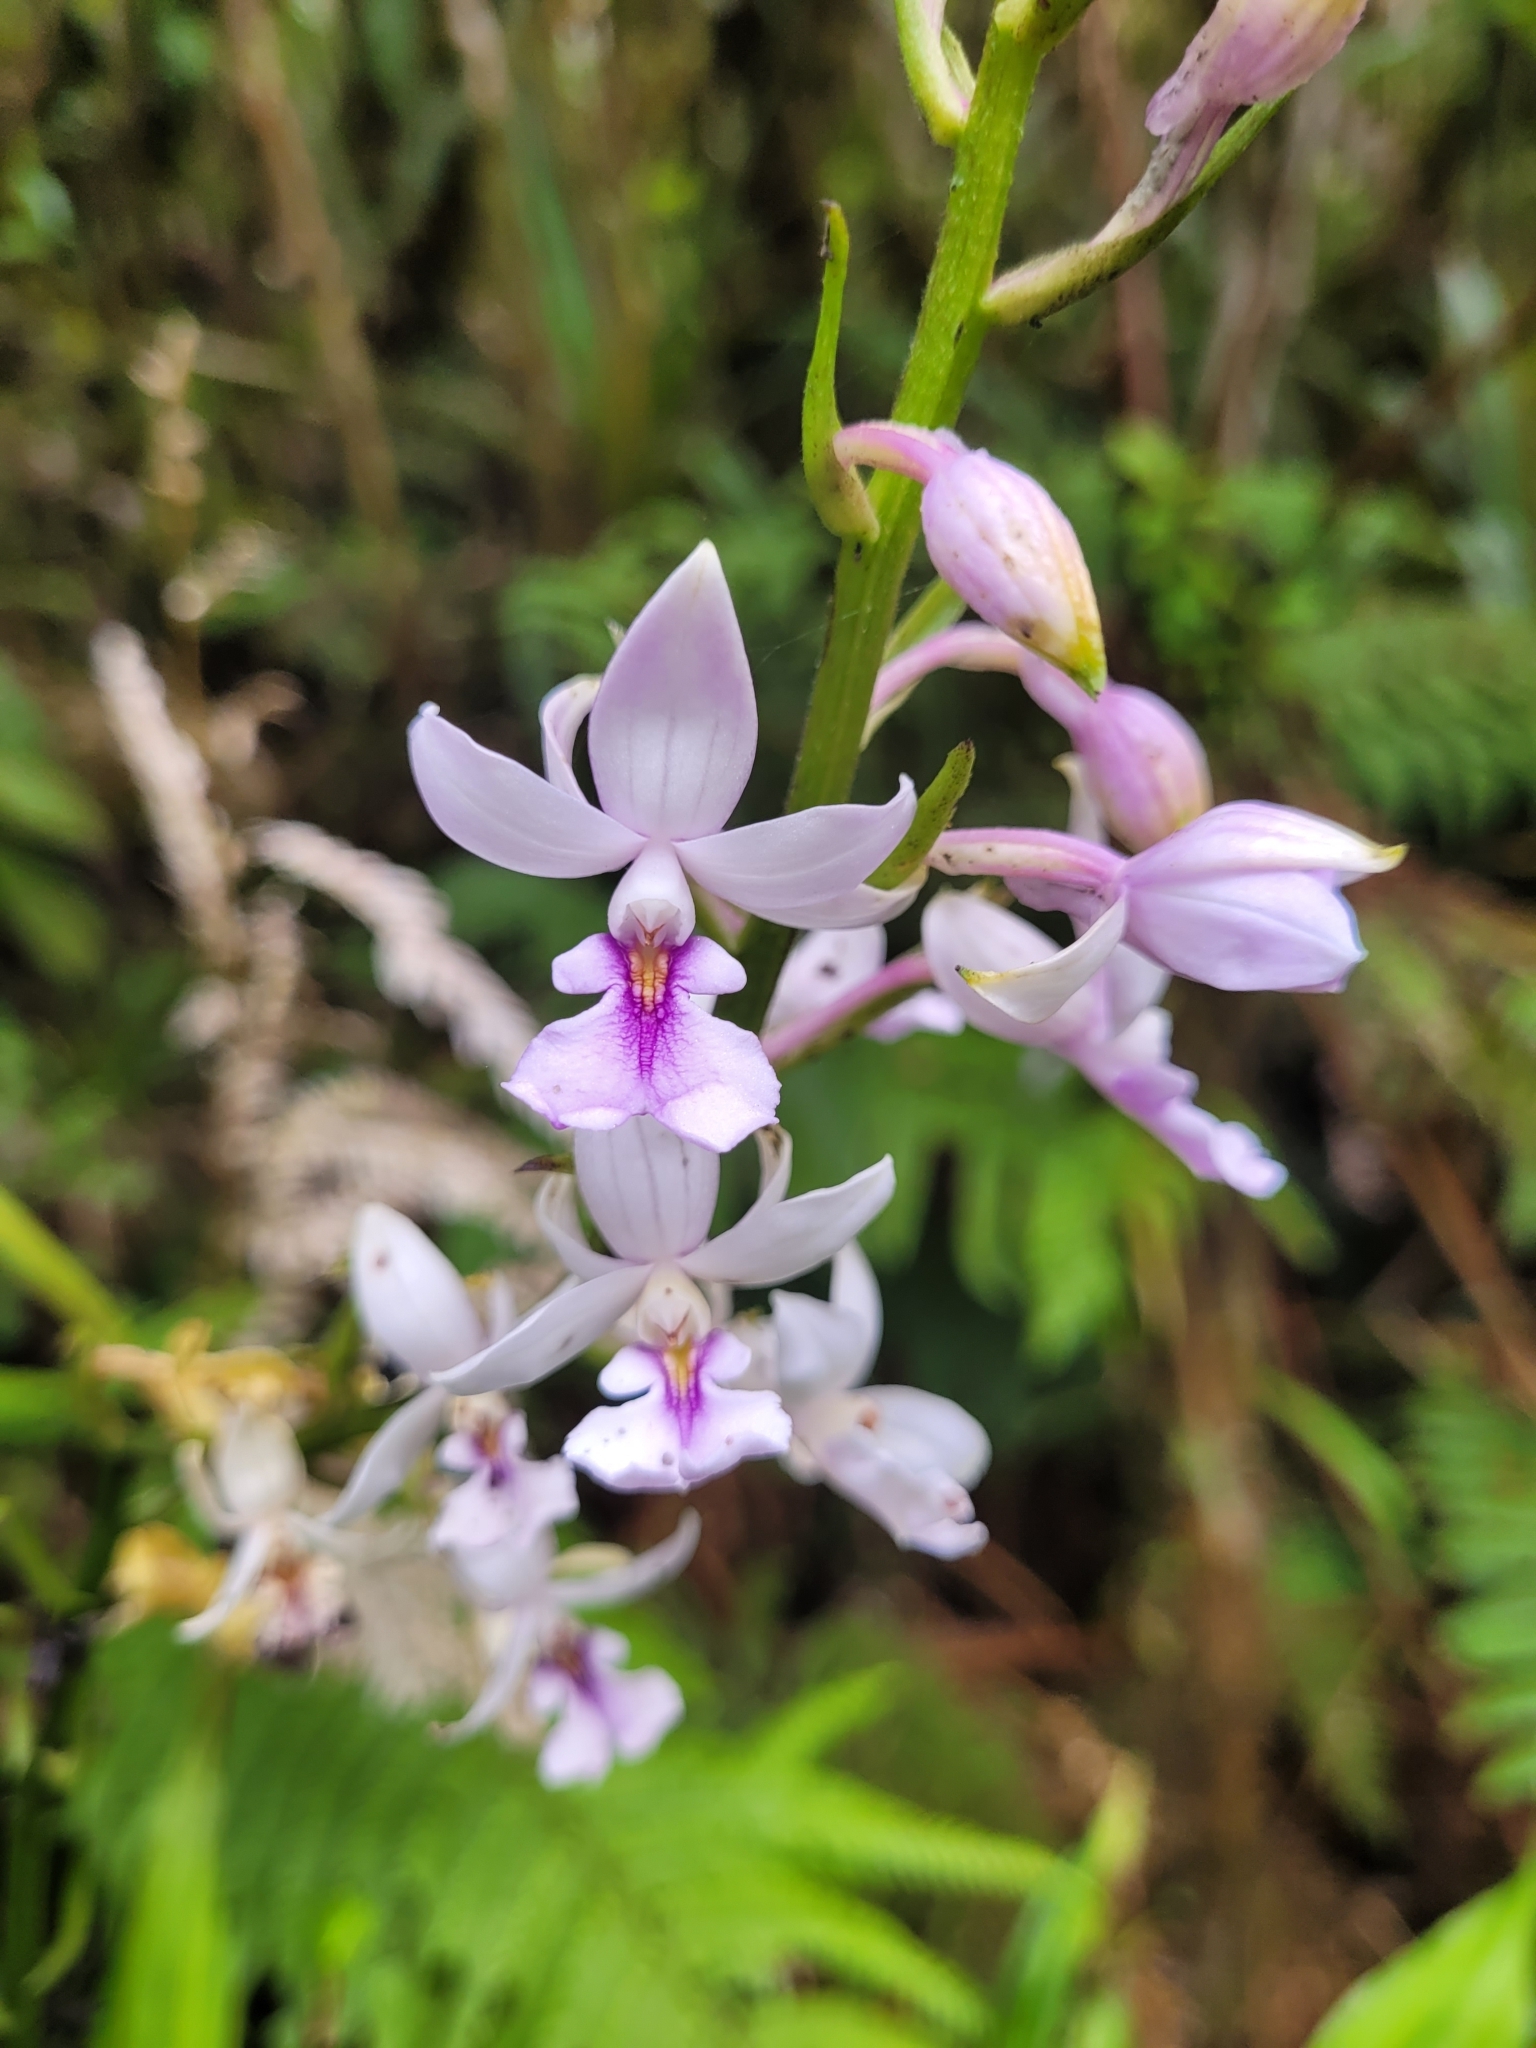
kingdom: Plantae
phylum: Tracheophyta
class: Liliopsida
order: Asparagales
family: Orchidaceae
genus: Calanthe
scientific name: Calanthe sylvatica
